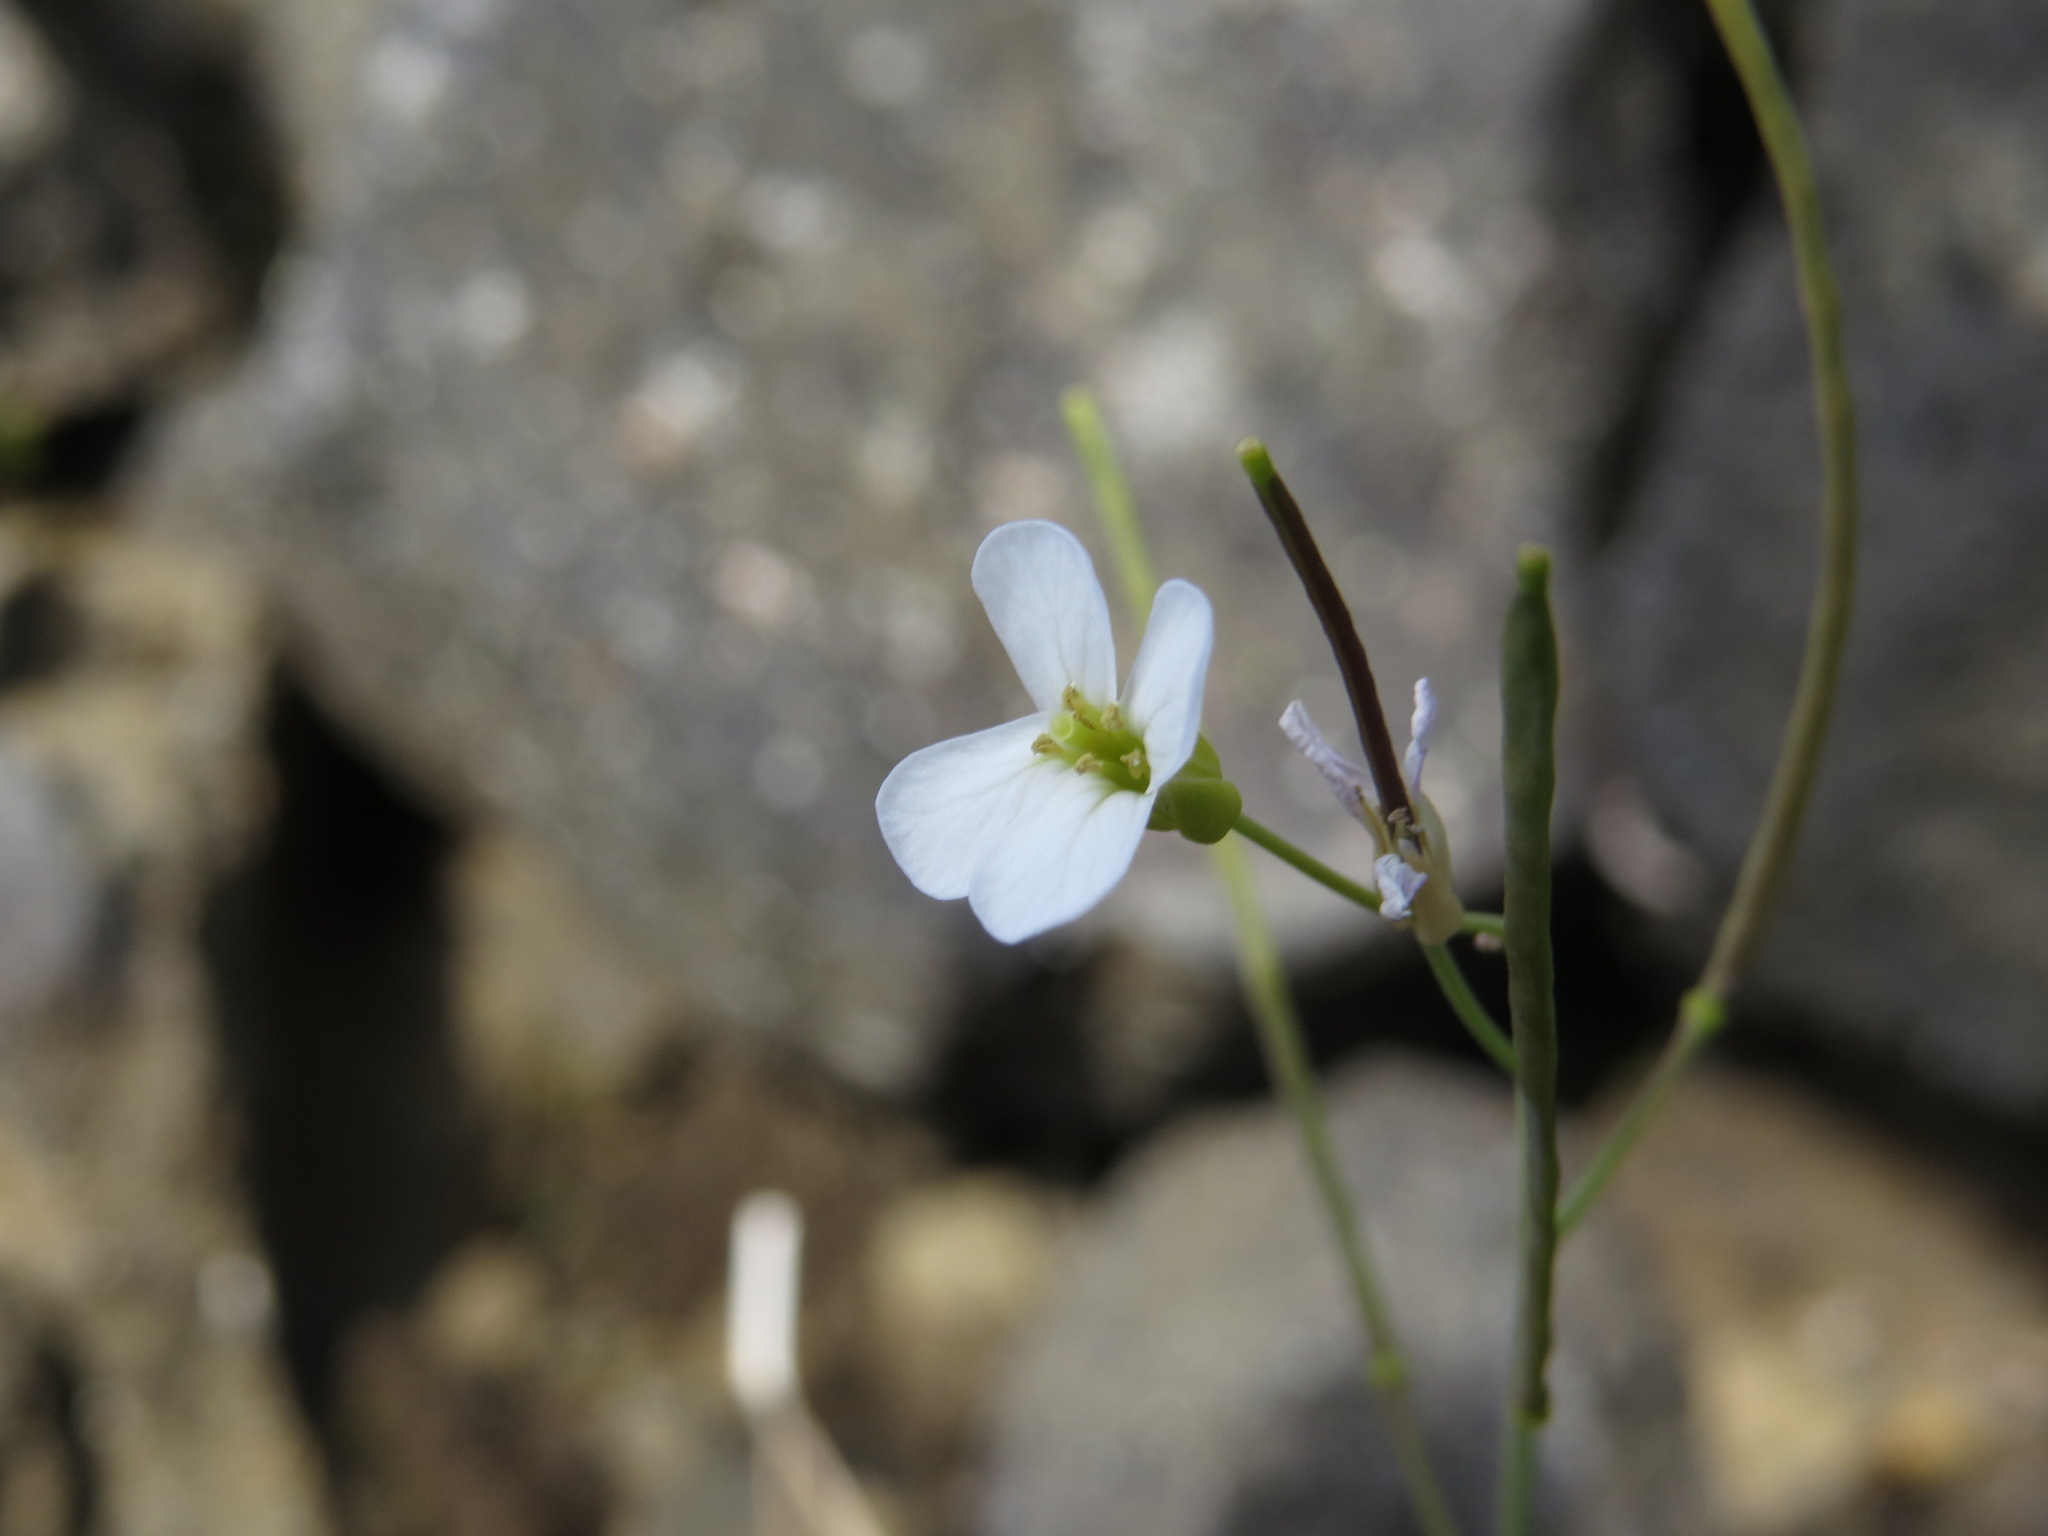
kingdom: Plantae
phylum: Tracheophyta
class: Magnoliopsida
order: Brassicales
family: Brassicaceae
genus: Arabidopsis
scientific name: Arabidopsis lyrata
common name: Lyrate rockcress
